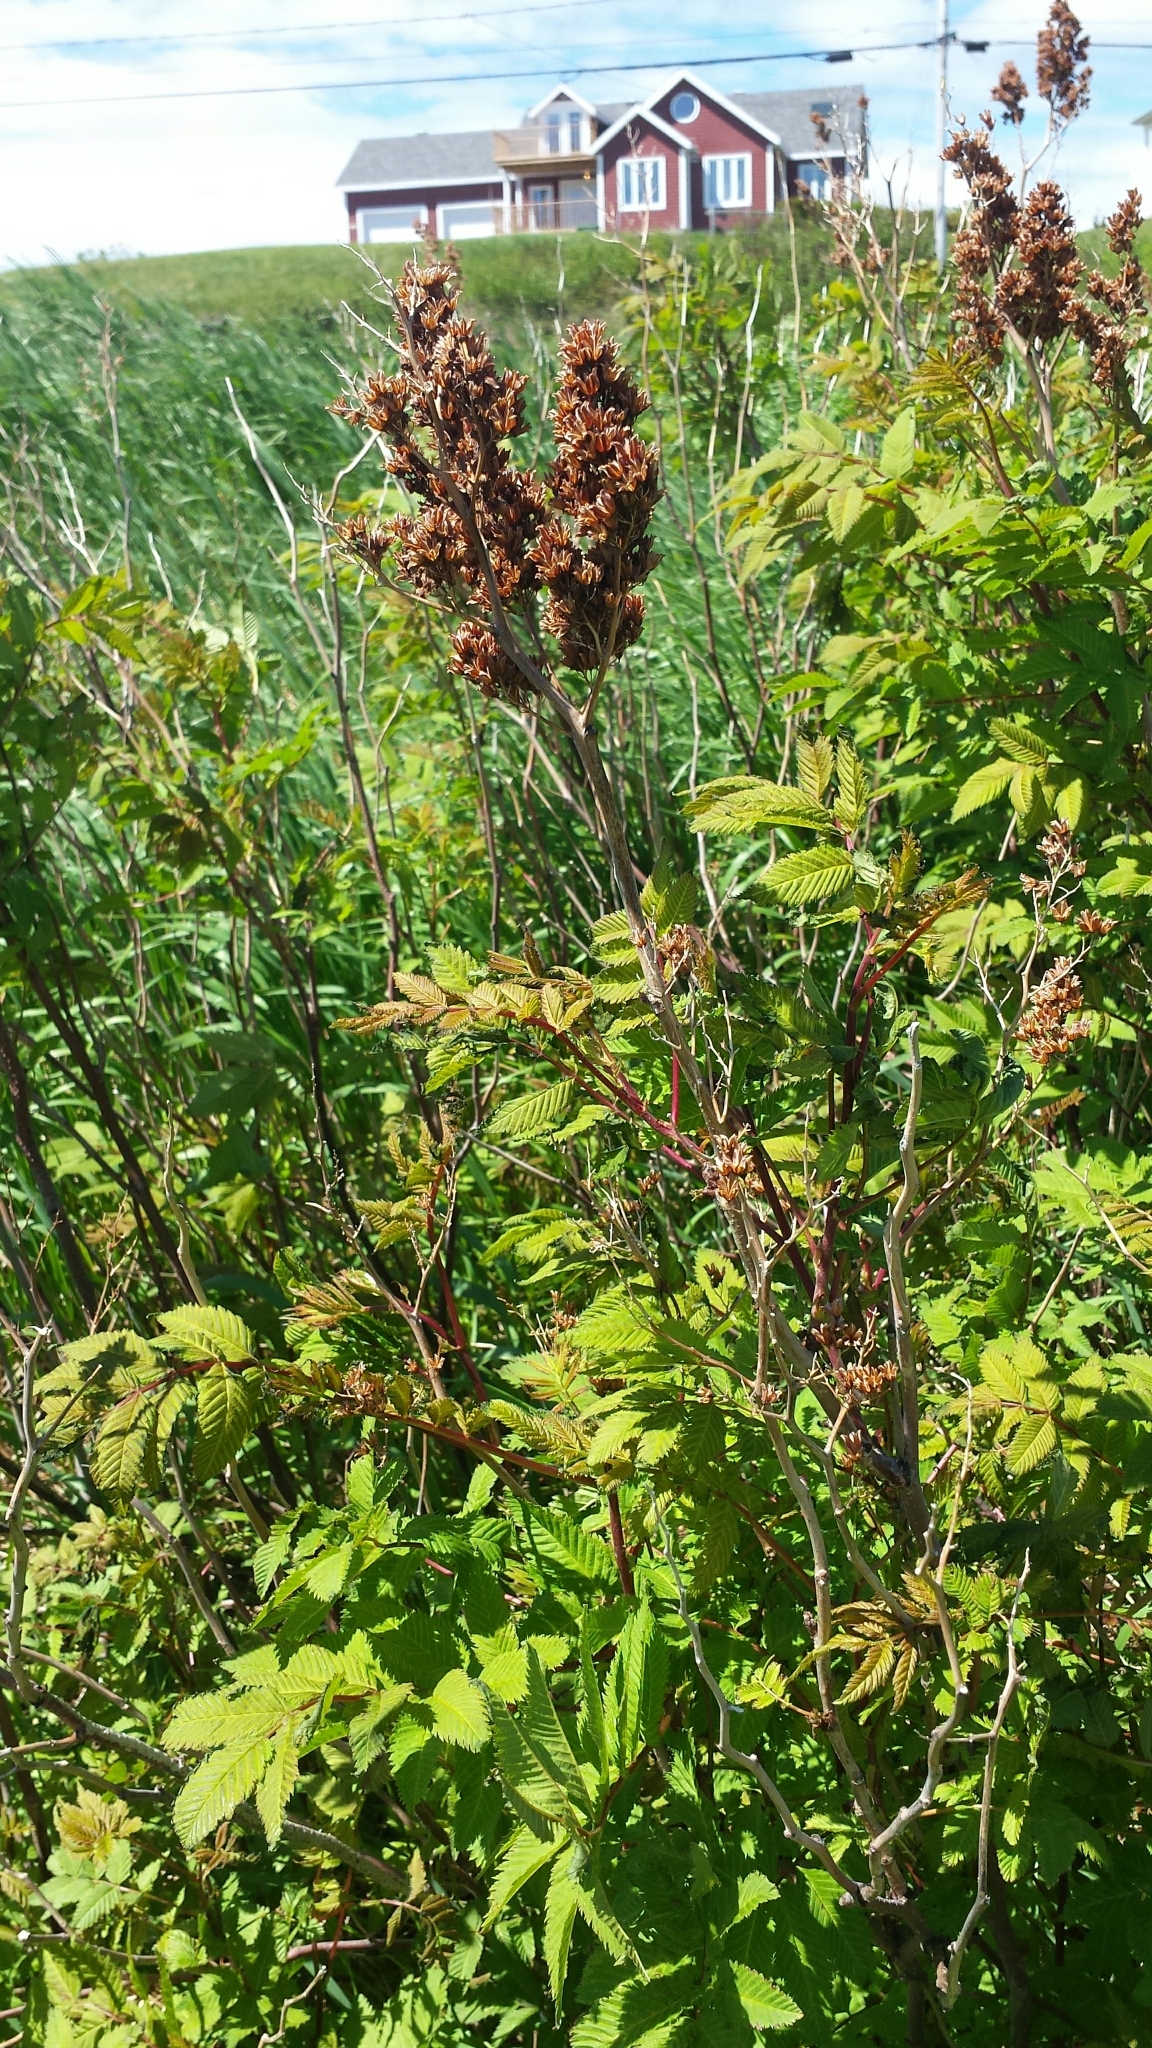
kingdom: Plantae
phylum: Tracheophyta
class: Magnoliopsida
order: Rosales
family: Rosaceae
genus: Sorbaria
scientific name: Sorbaria sorbifolia
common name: False spiraea
